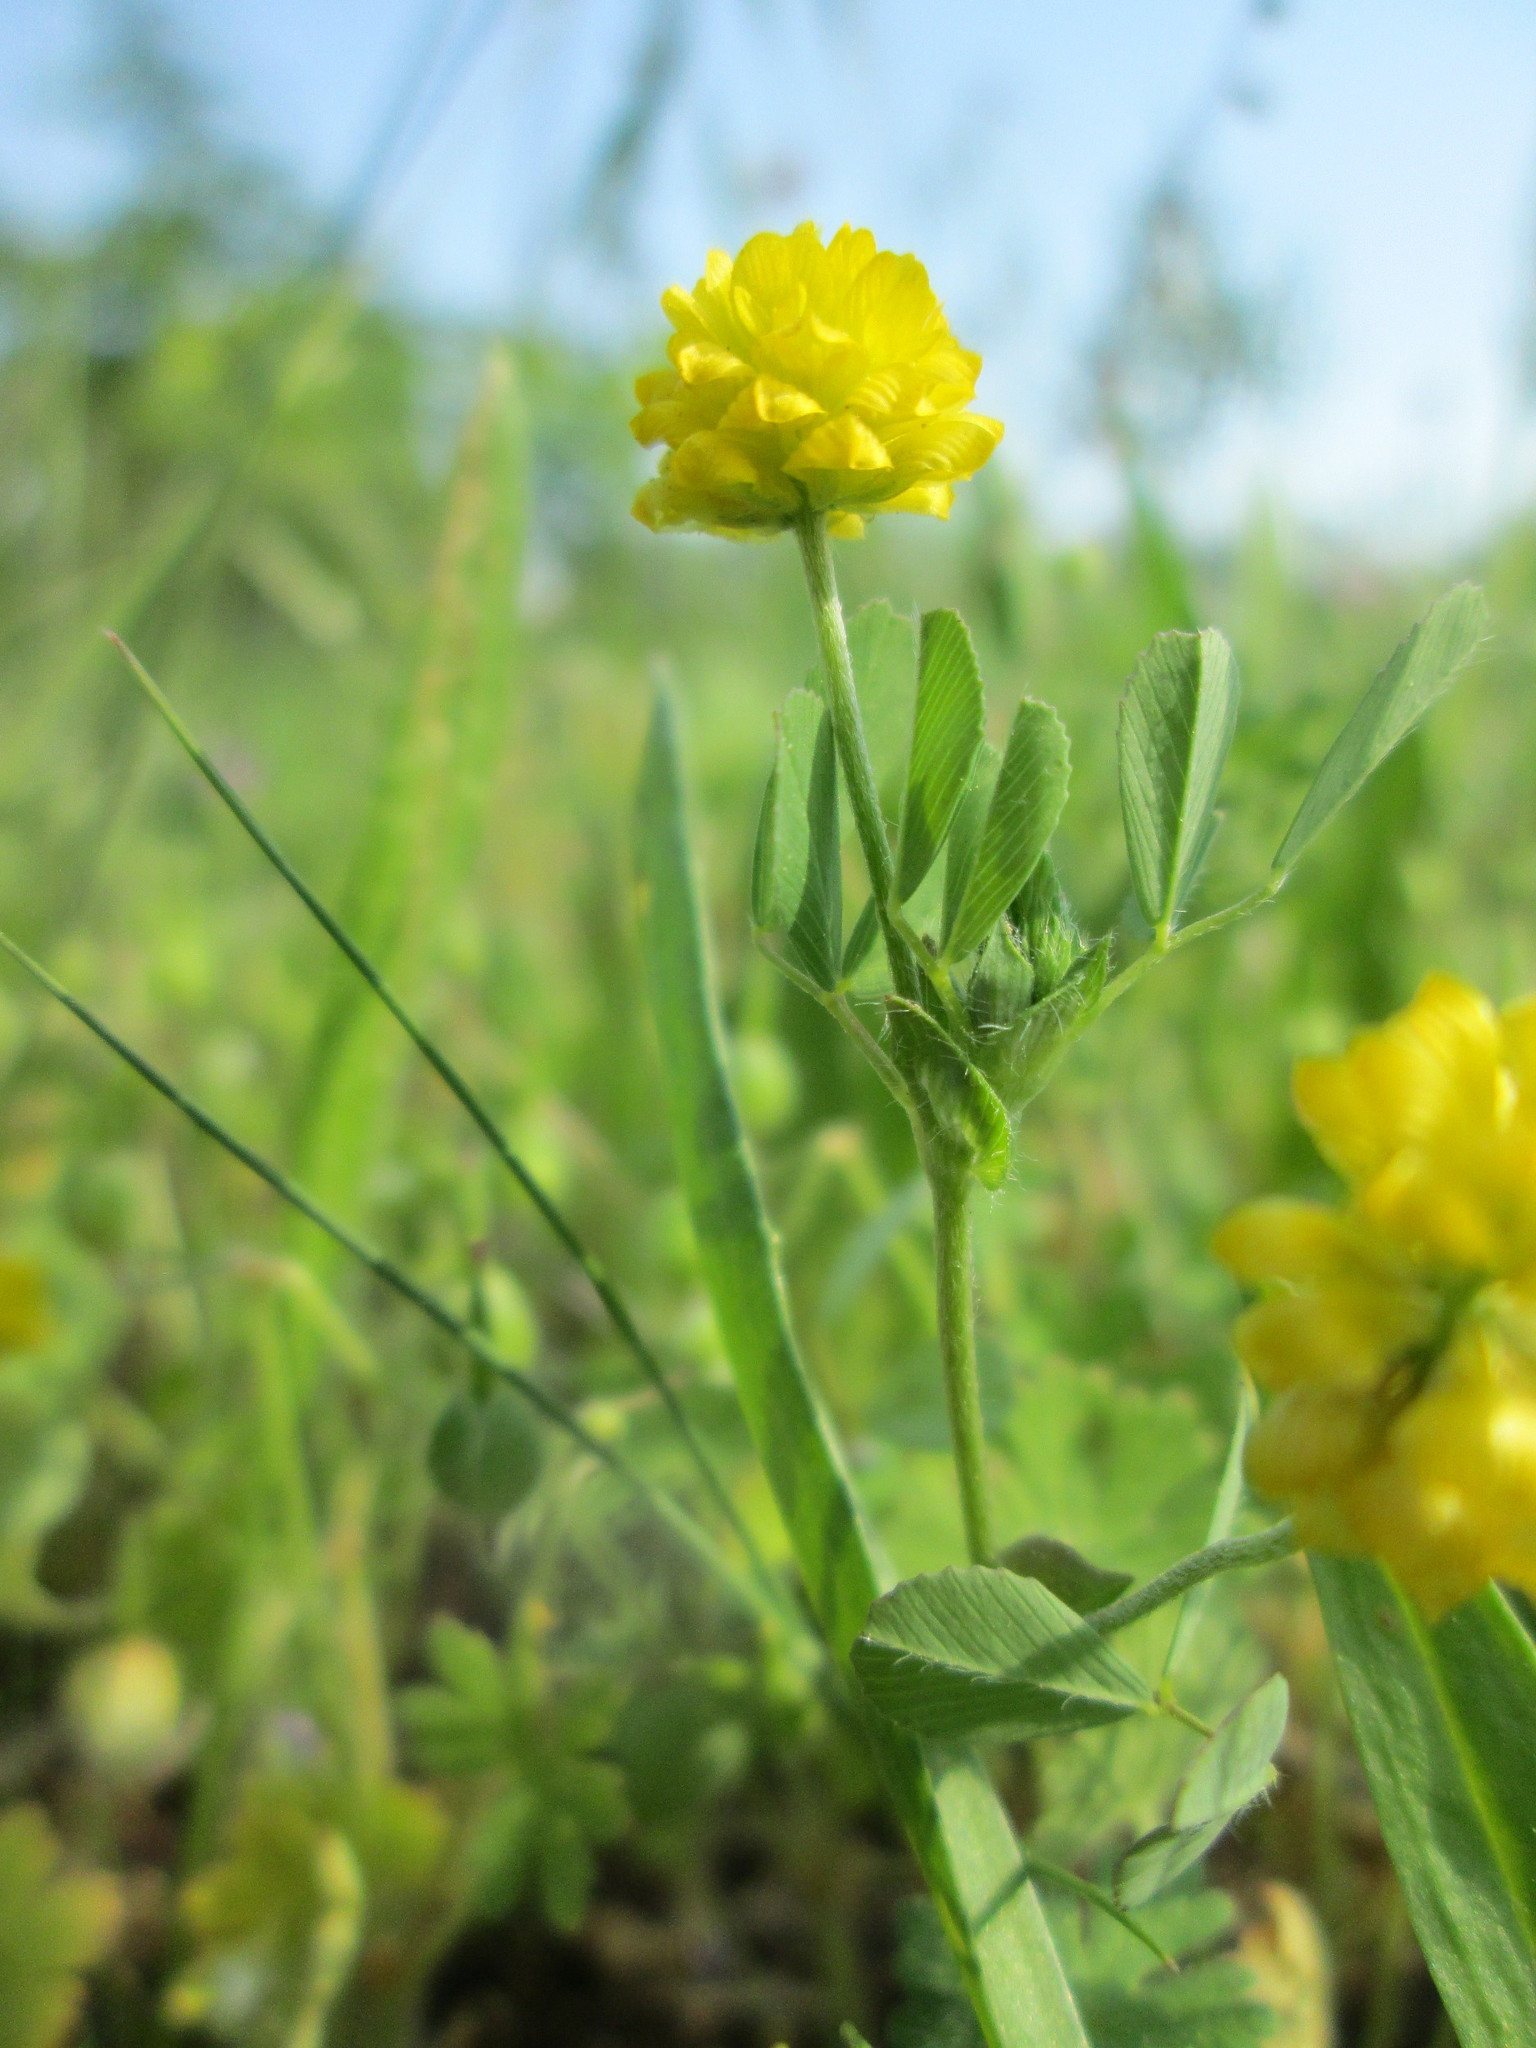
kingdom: Plantae
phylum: Tracheophyta
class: Magnoliopsida
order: Fabales
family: Fabaceae
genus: Trifolium
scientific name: Trifolium campestre
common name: Field clover
